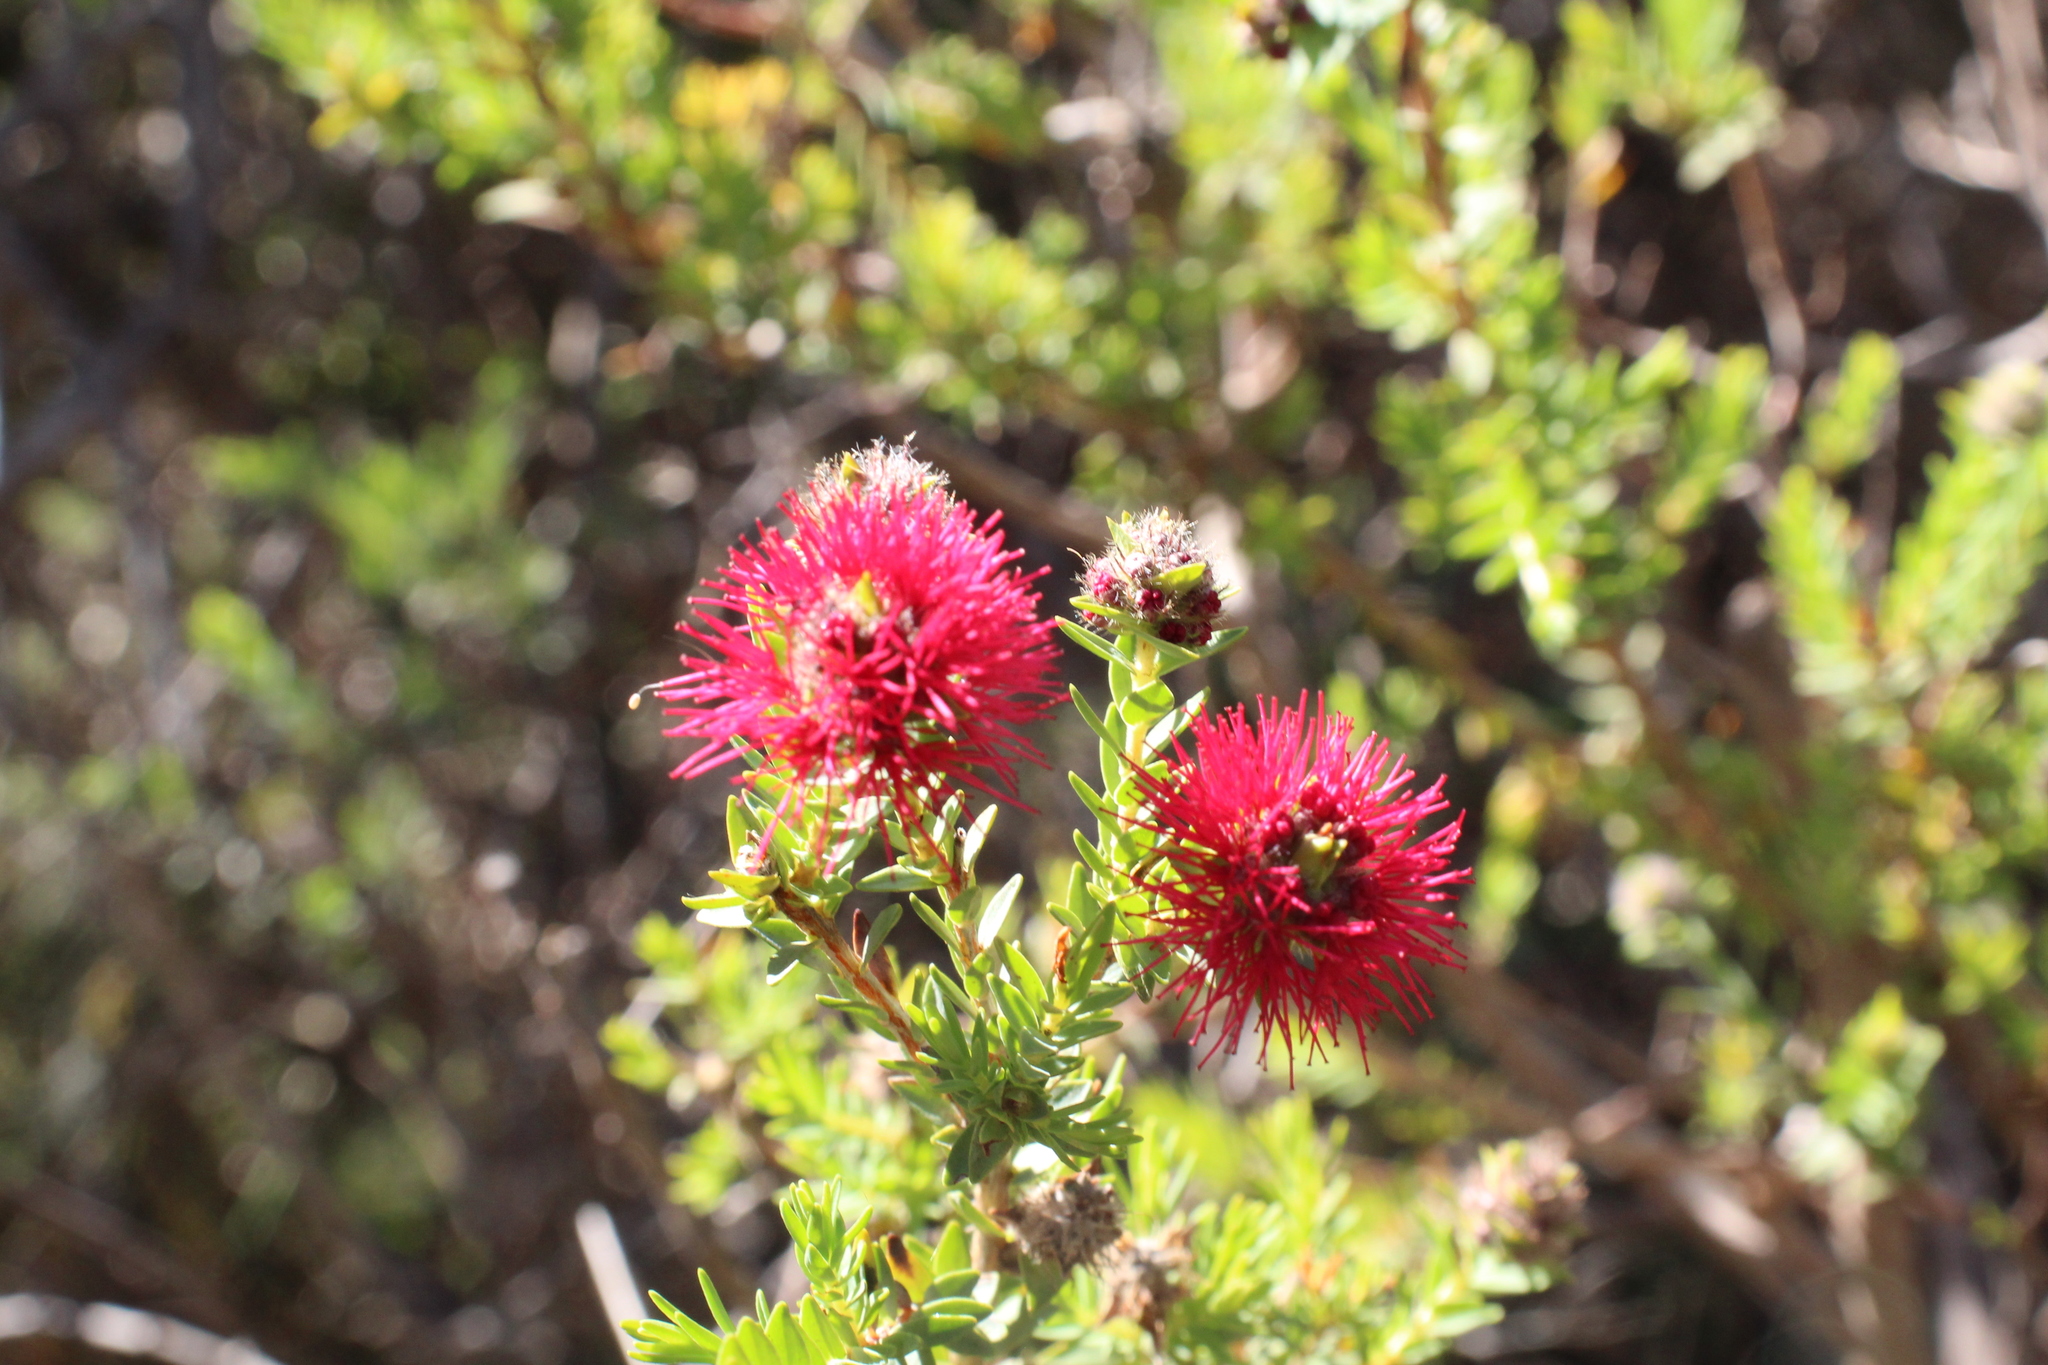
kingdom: Plantae
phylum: Tracheophyta
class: Magnoliopsida
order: Myrtales
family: Myrtaceae
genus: Melaleuca
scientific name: Melaleuca purpurea
